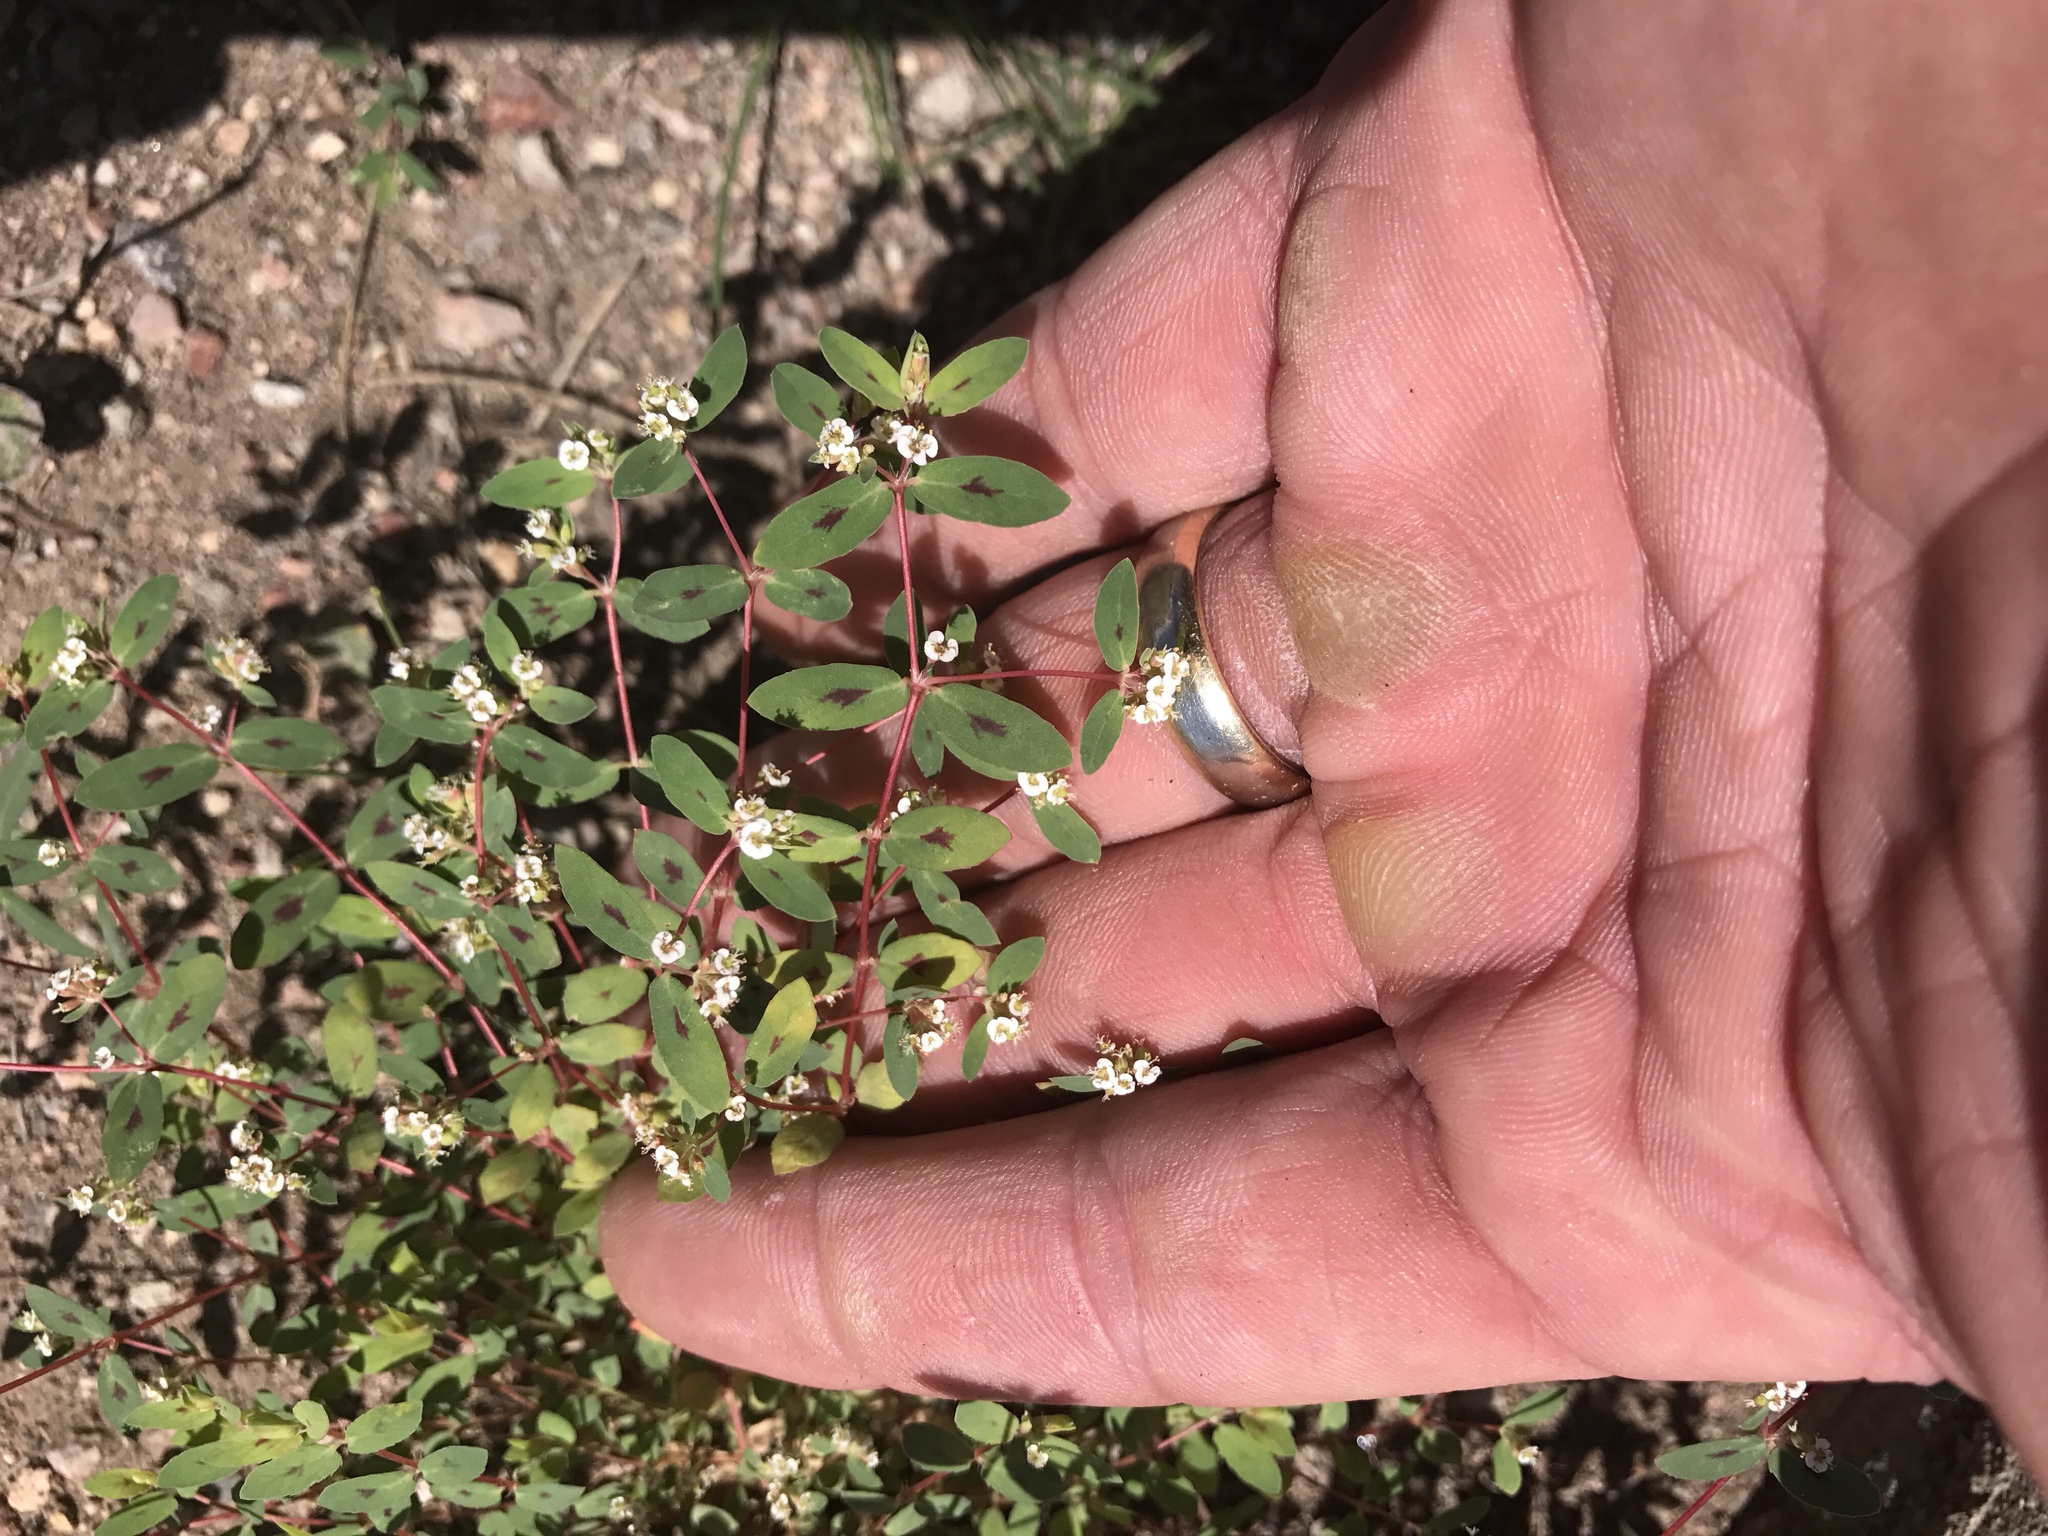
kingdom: Plantae
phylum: Tracheophyta
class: Magnoliopsida
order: Malpighiales
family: Euphorbiaceae
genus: Euphorbia
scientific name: Euphorbia capitellata
